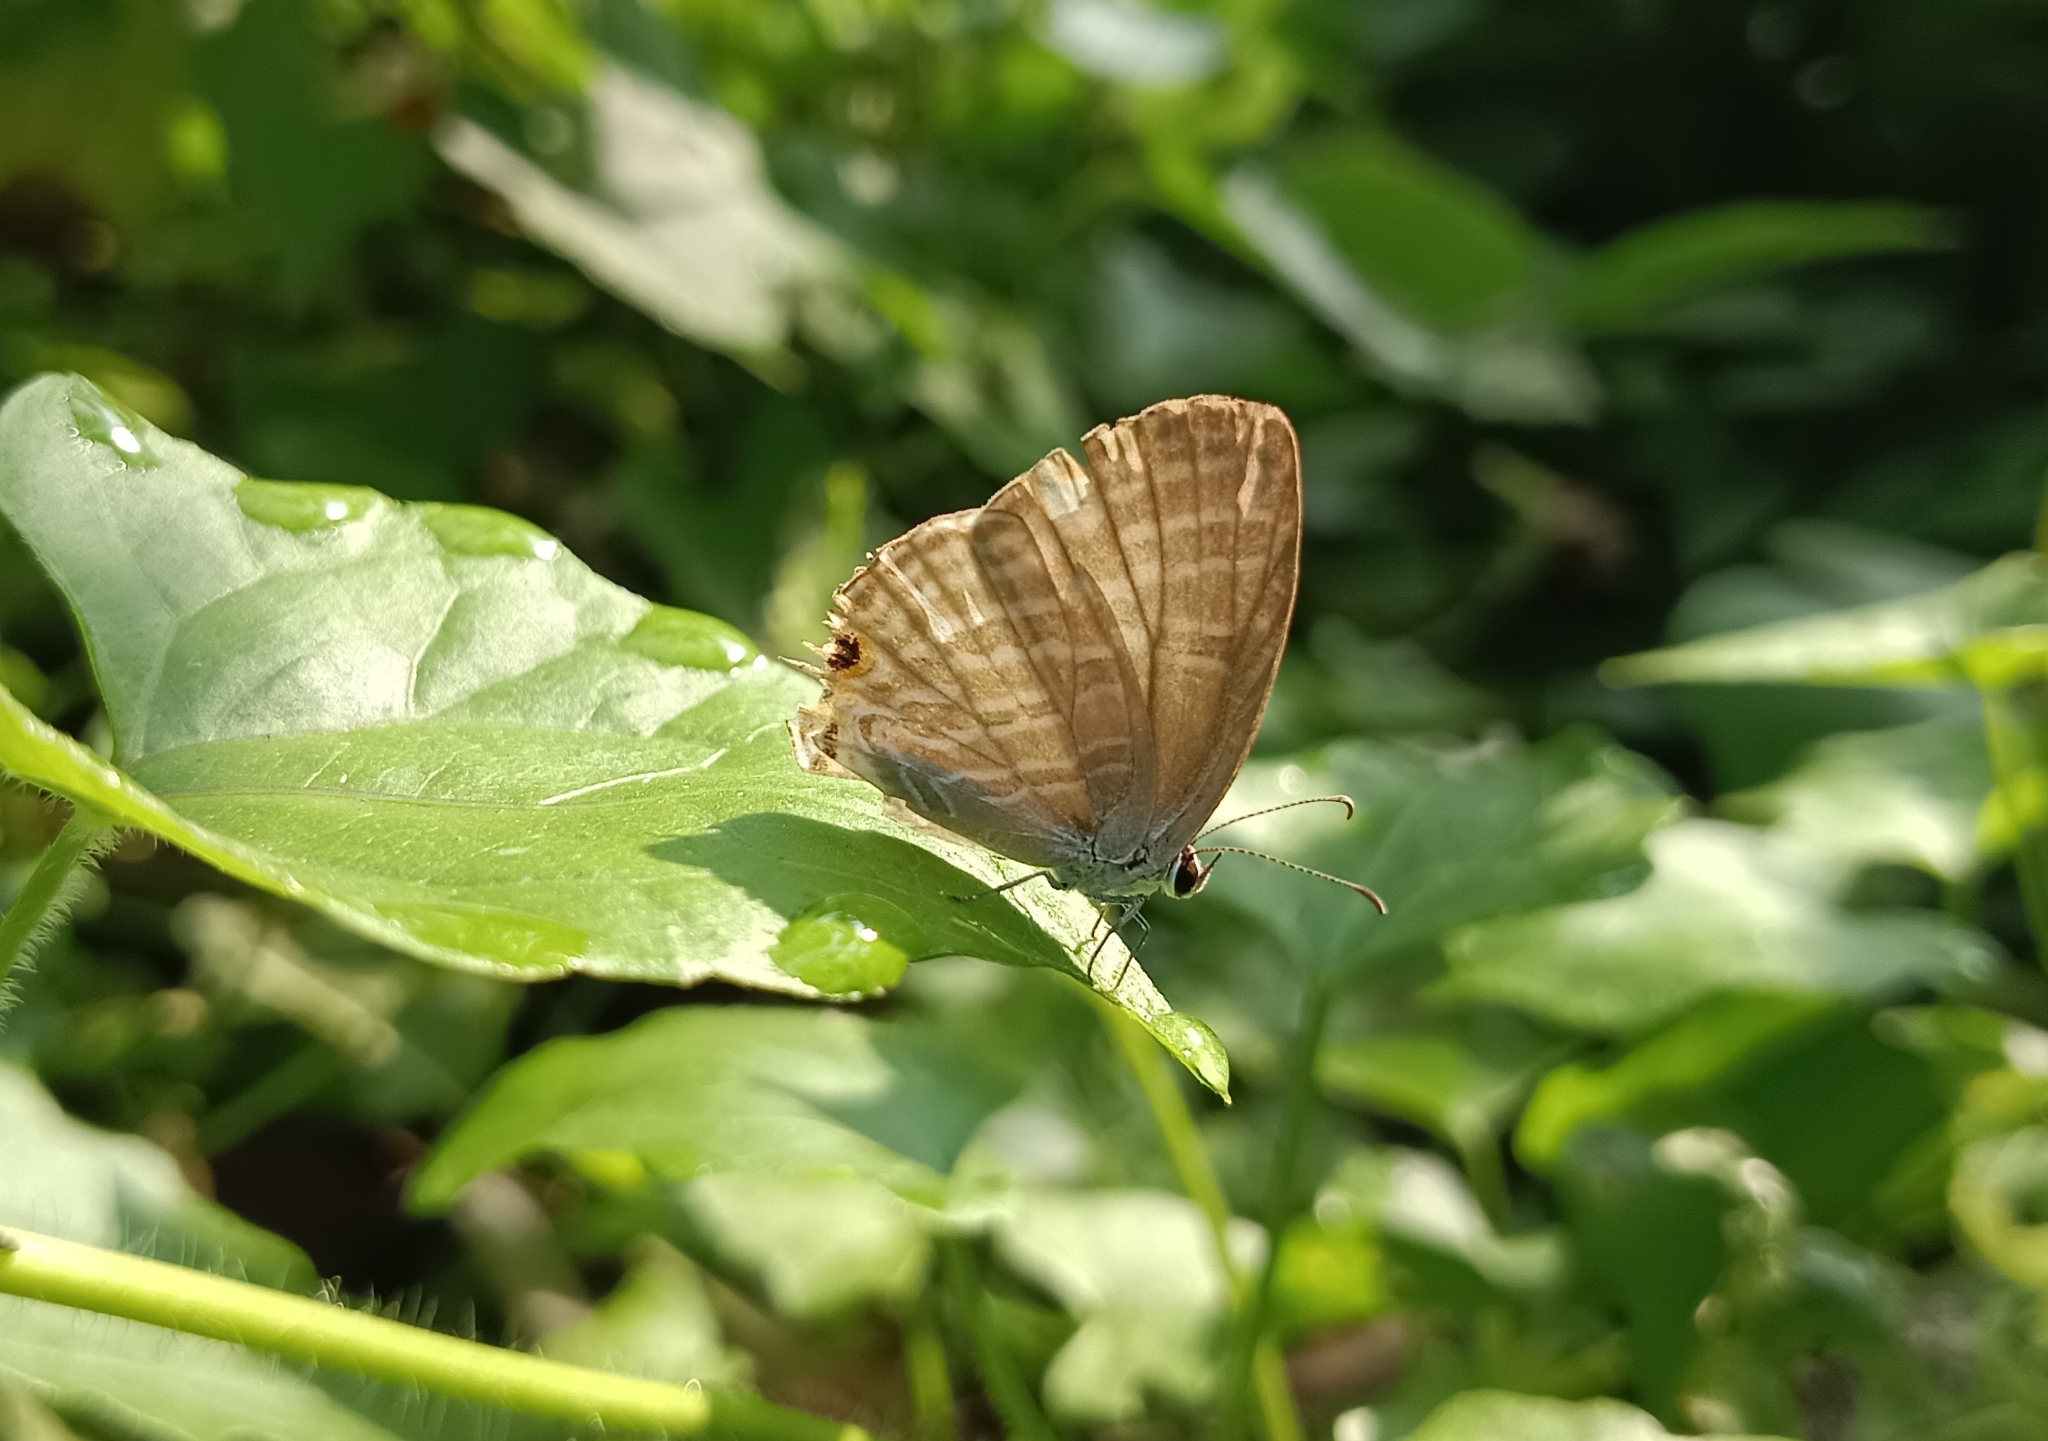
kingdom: Animalia
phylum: Arthropoda
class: Insecta
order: Lepidoptera
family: Lycaenidae
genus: Jamides
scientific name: Jamides celeno
